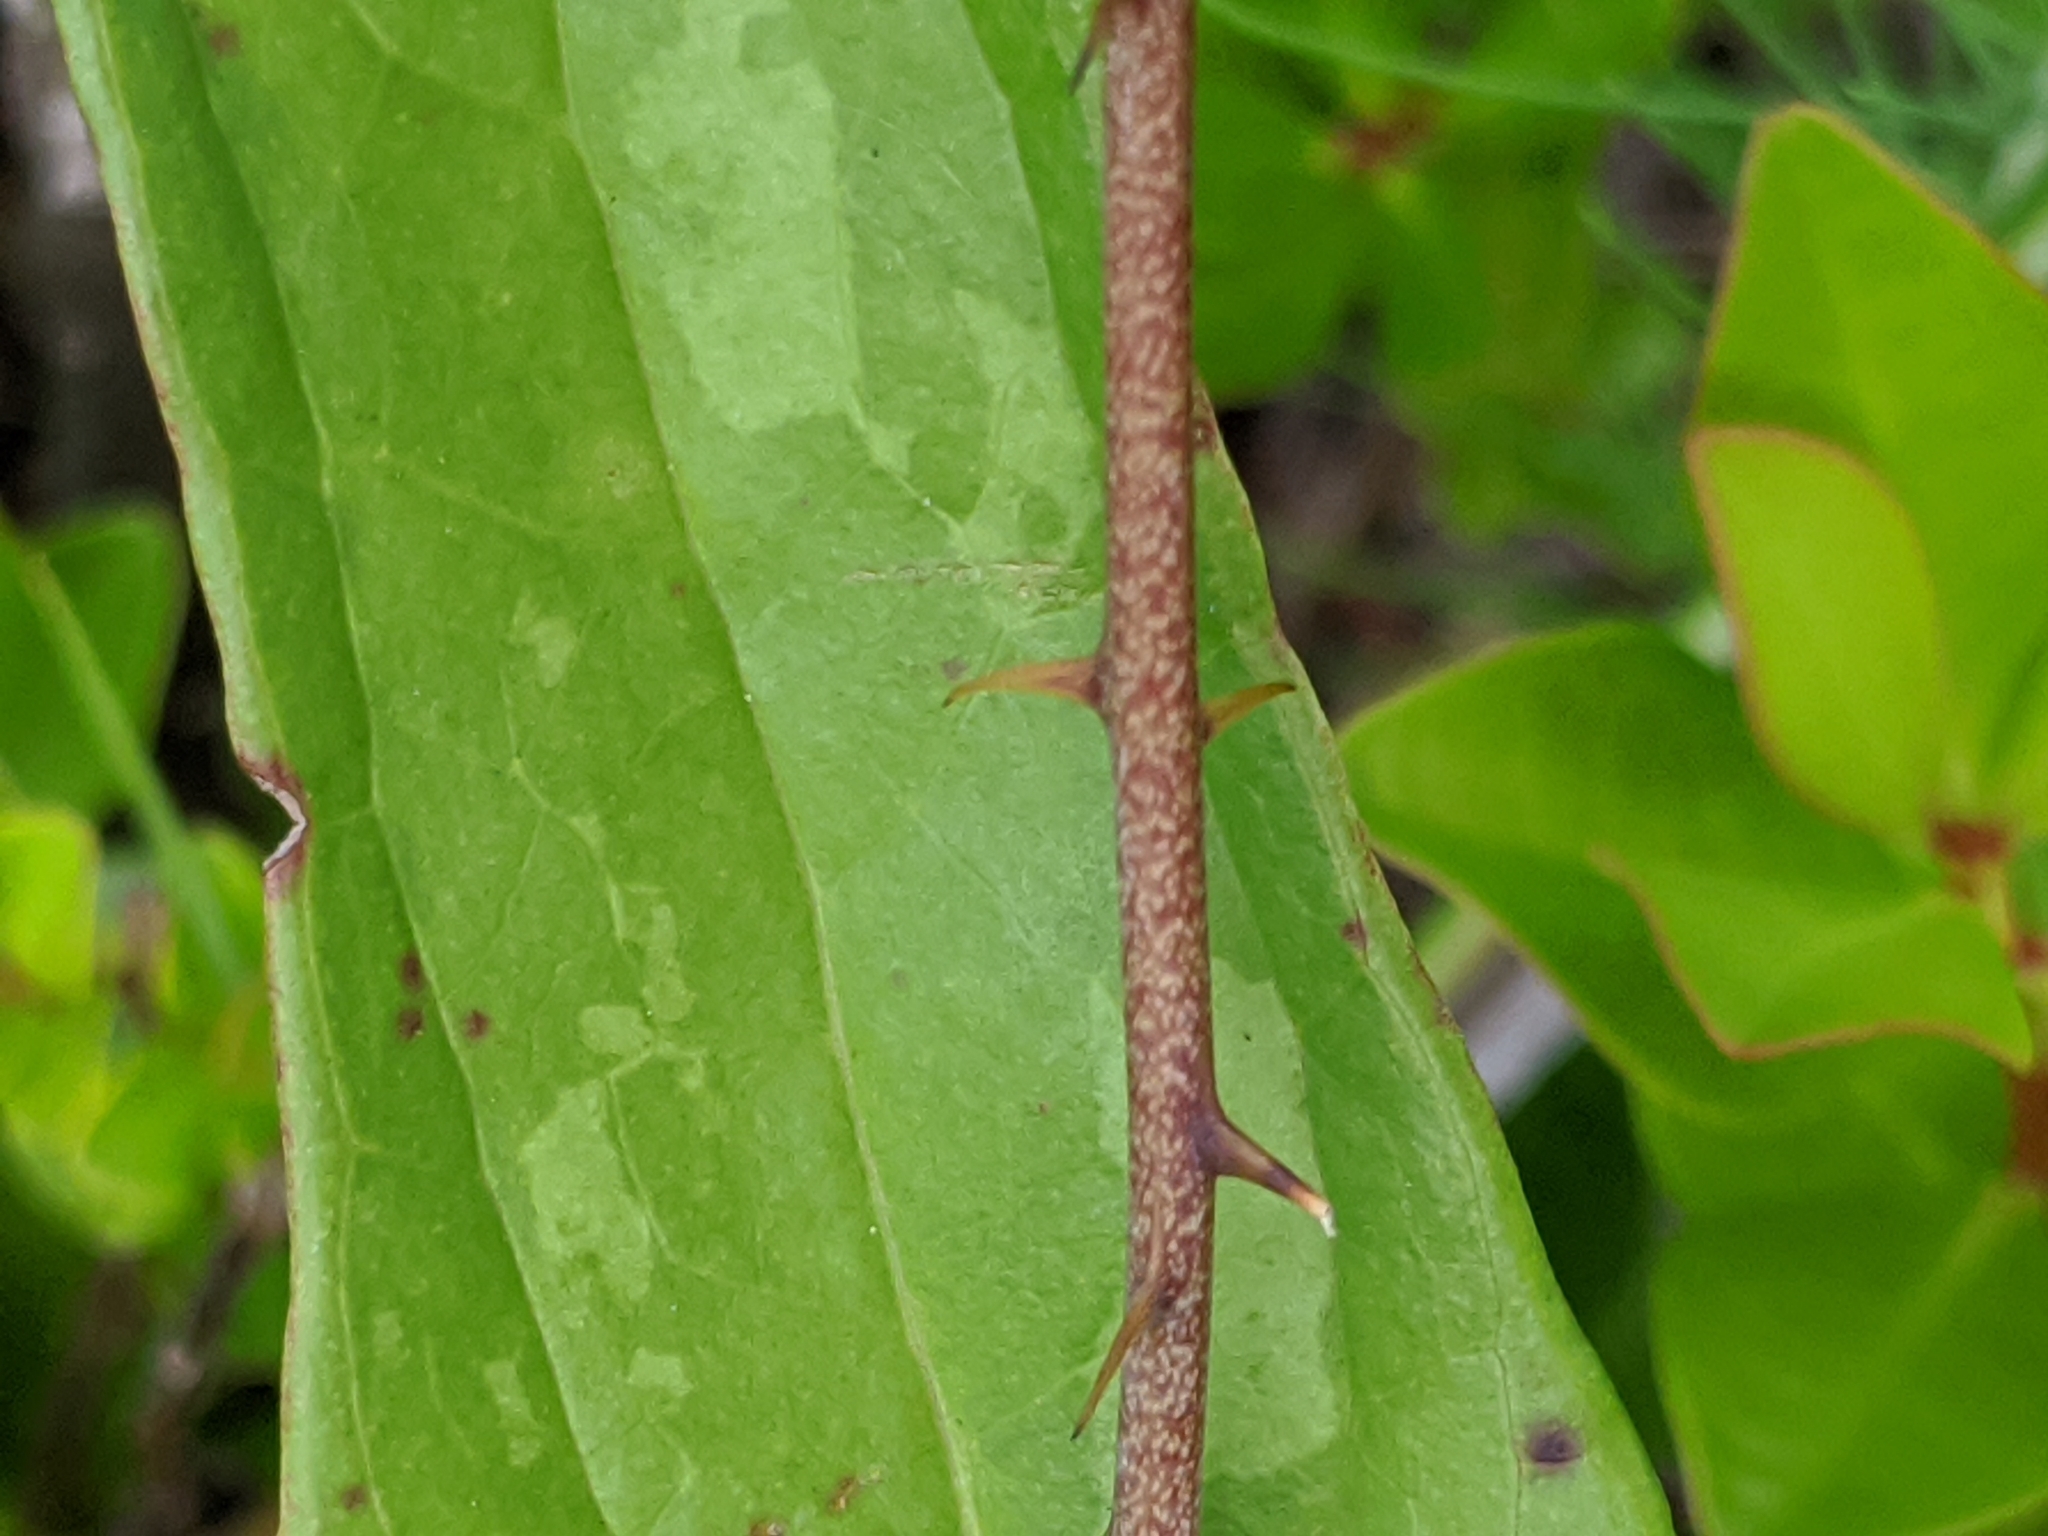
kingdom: Plantae
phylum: Tracheophyta
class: Liliopsida
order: Liliales
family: Smilacaceae
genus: Smilax
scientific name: Smilax auriculata
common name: Wild bamboo
